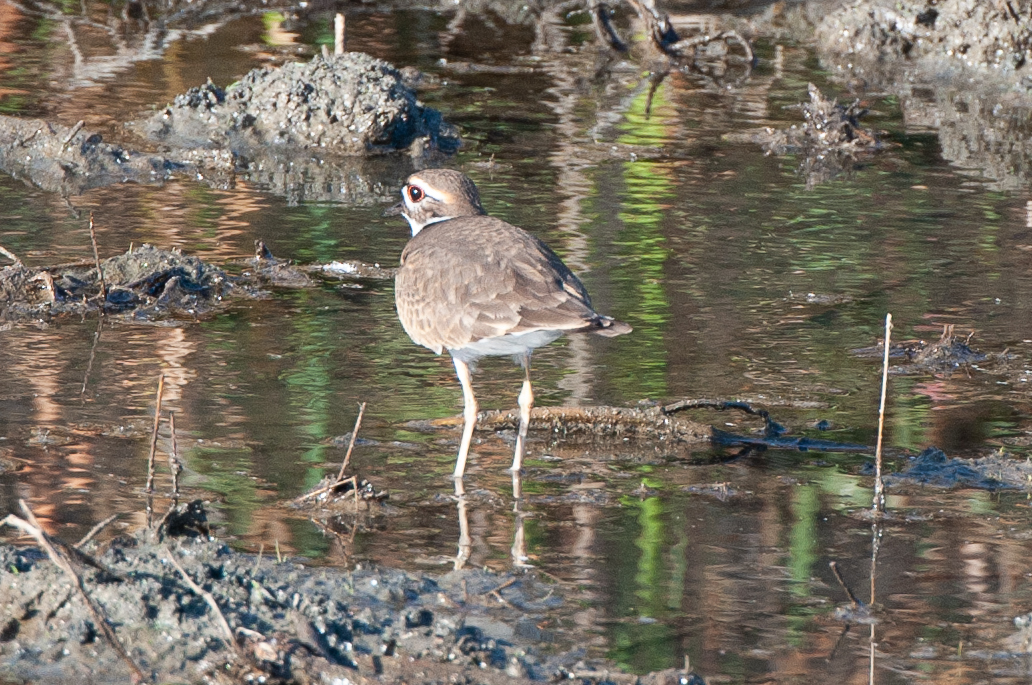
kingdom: Animalia
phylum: Chordata
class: Aves
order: Charadriiformes
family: Charadriidae
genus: Charadrius
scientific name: Charadrius vociferus
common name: Killdeer
